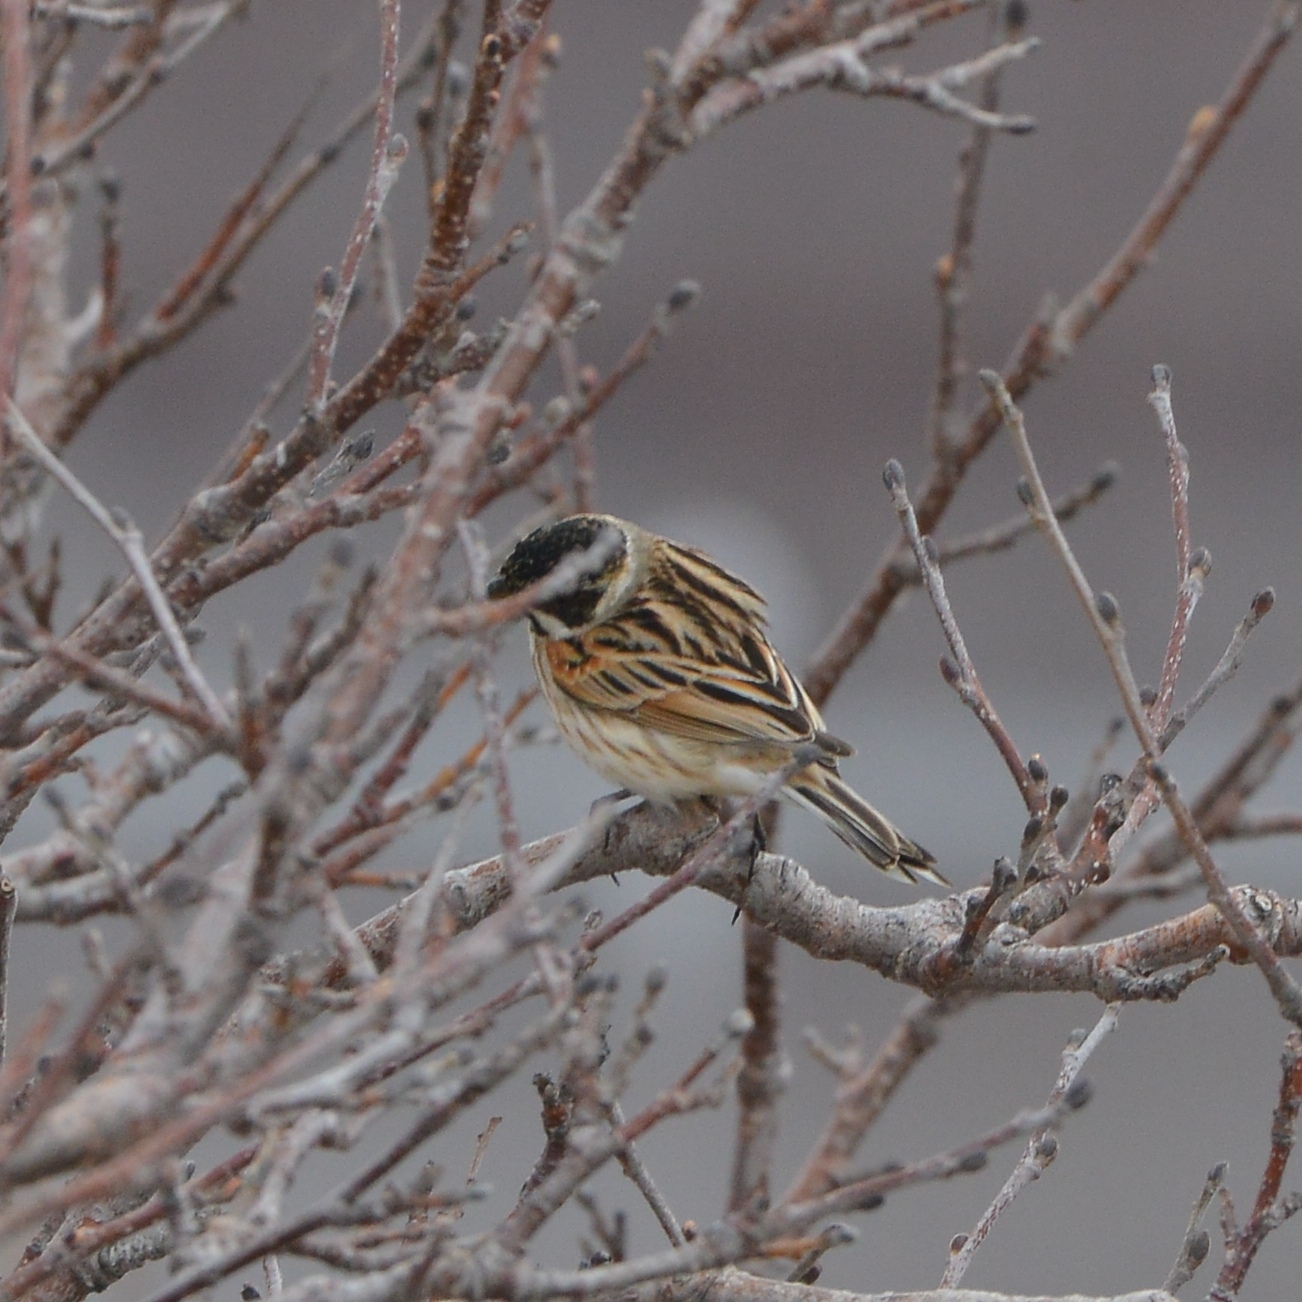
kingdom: Animalia
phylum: Chordata
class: Aves
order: Passeriformes
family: Emberizidae
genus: Emberiza
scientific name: Emberiza schoeniclus
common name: Reed bunting
